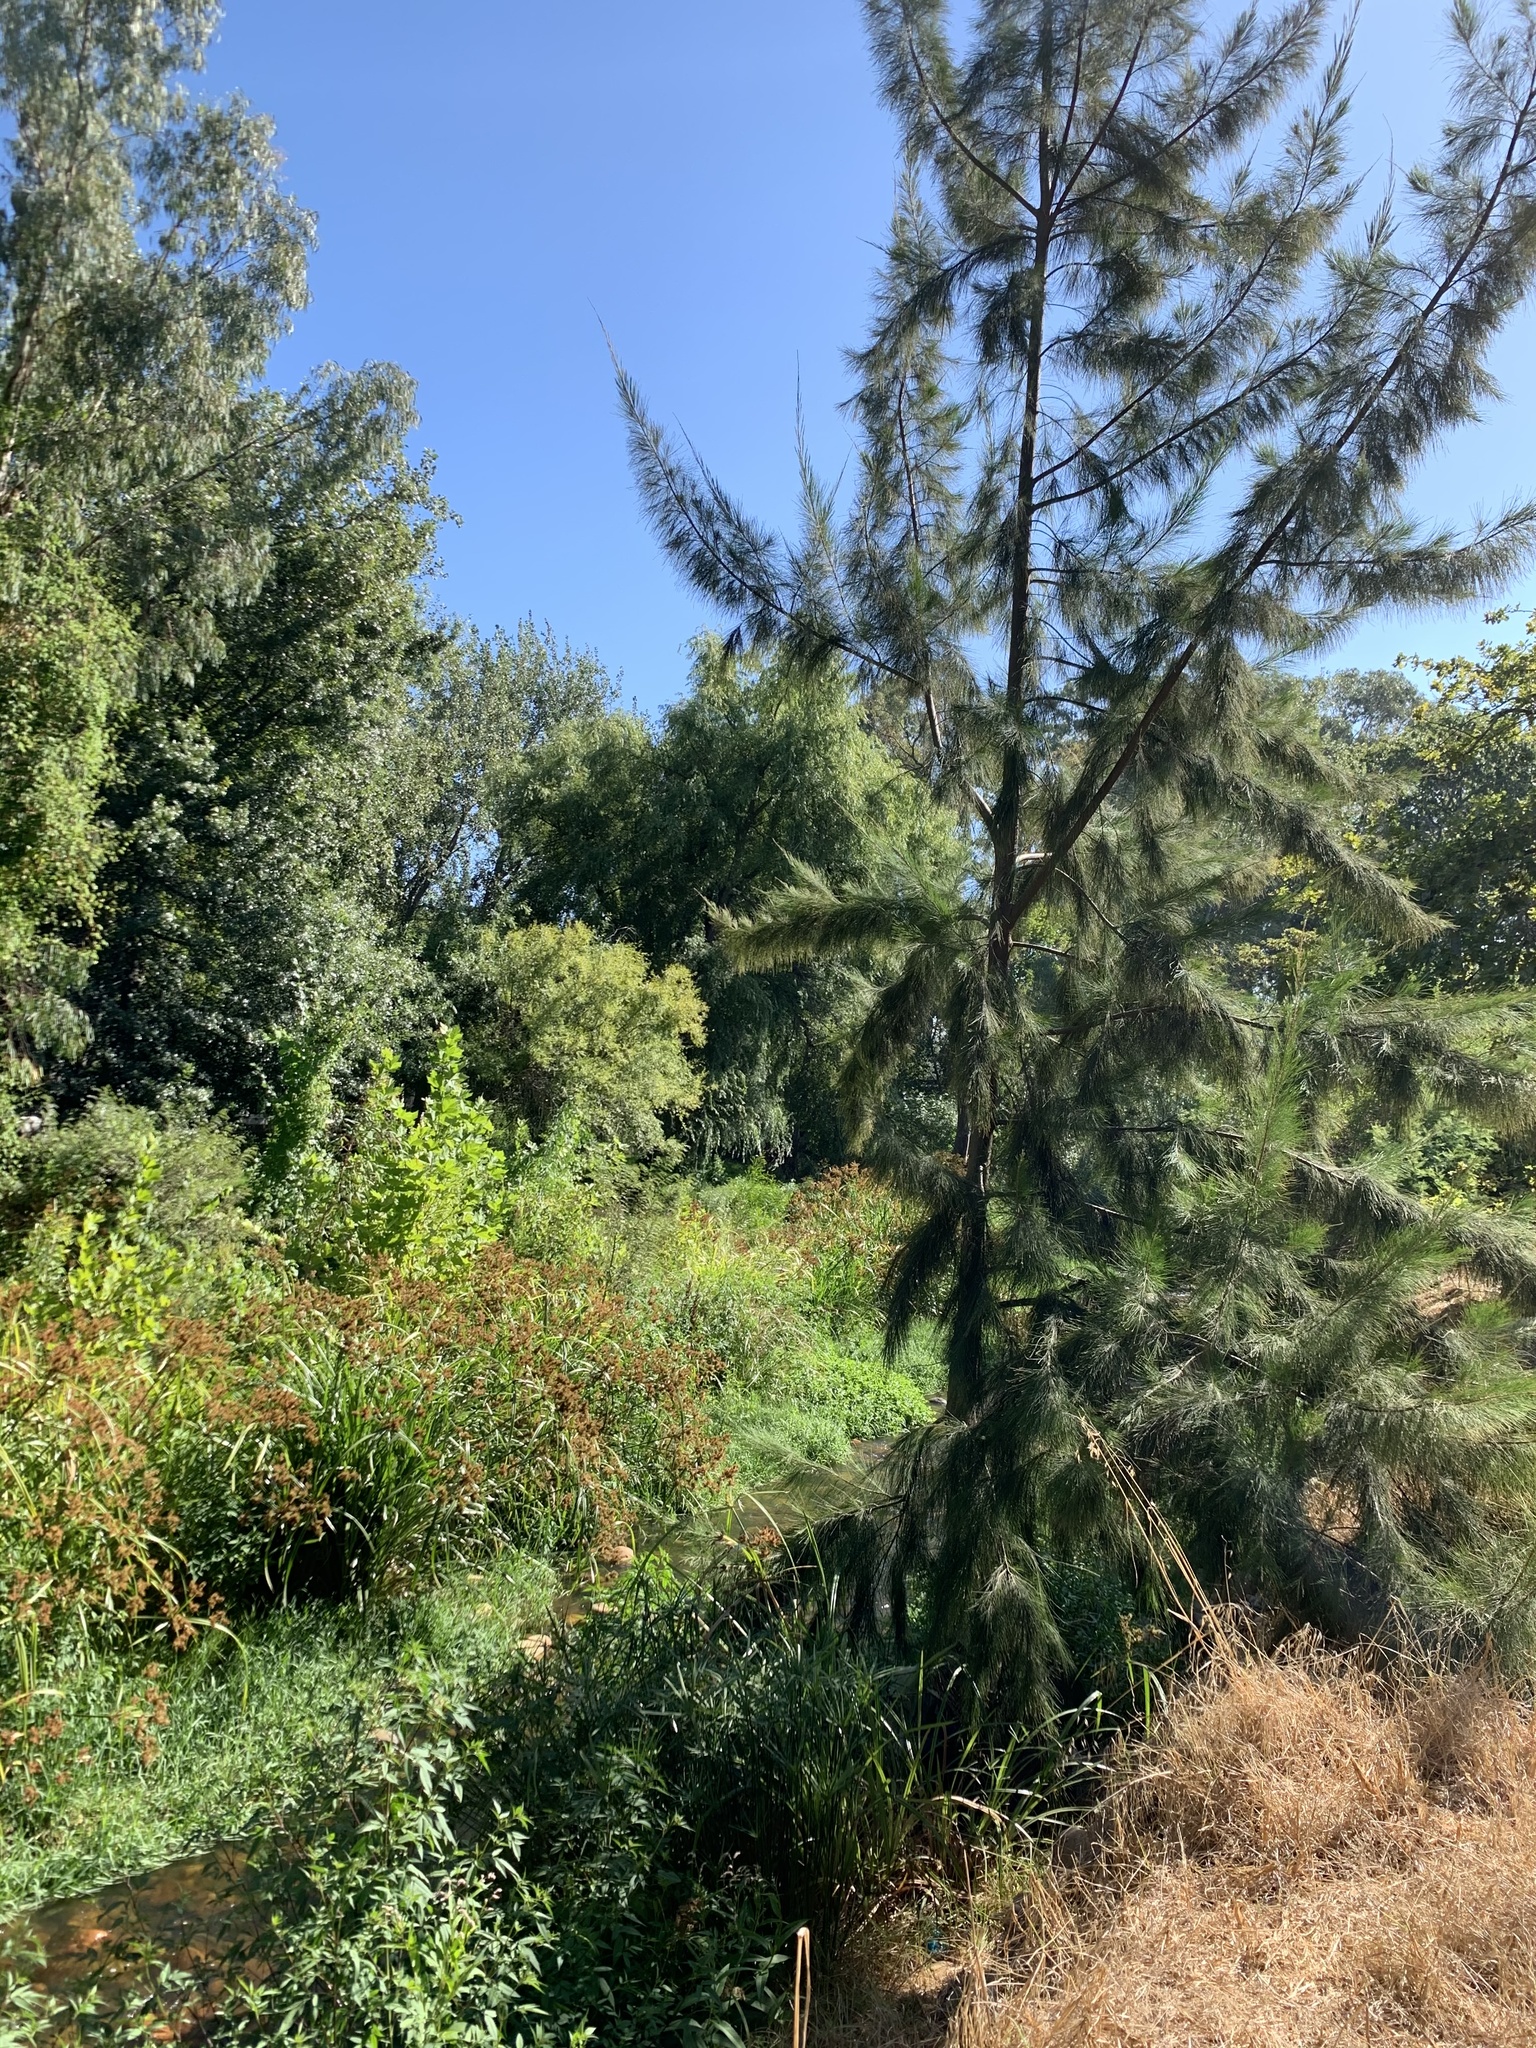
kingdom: Plantae
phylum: Tracheophyta
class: Magnoliopsida
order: Fagales
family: Casuarinaceae
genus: Casuarina
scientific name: Casuarina cunninghamiana
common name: River sheoak
